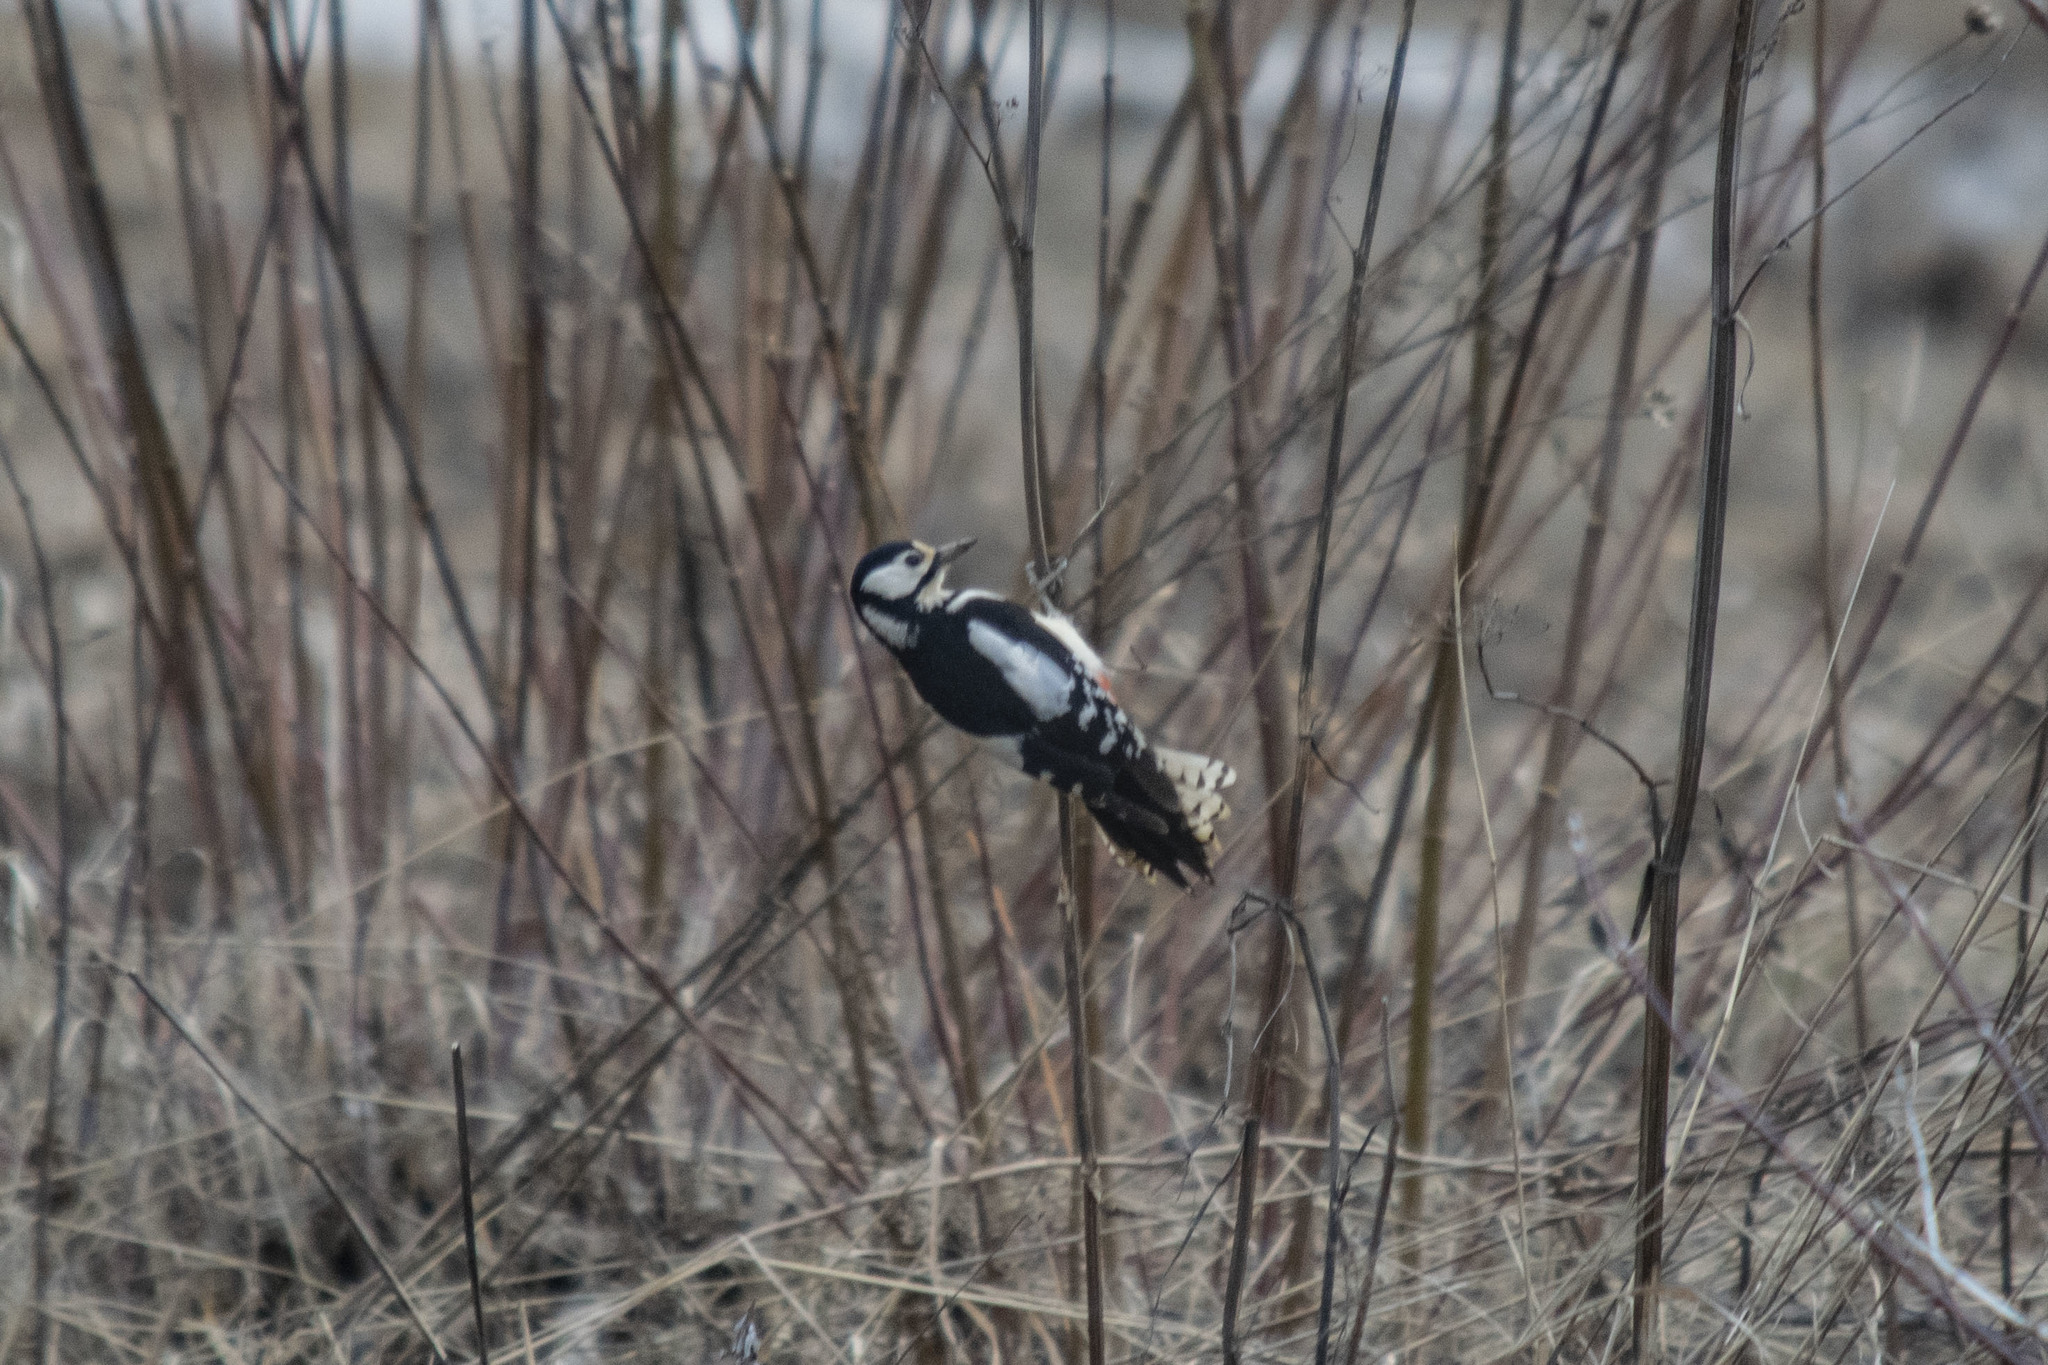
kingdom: Animalia
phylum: Chordata
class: Aves
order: Piciformes
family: Picidae
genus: Dendrocopos
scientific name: Dendrocopos major
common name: Great spotted woodpecker
